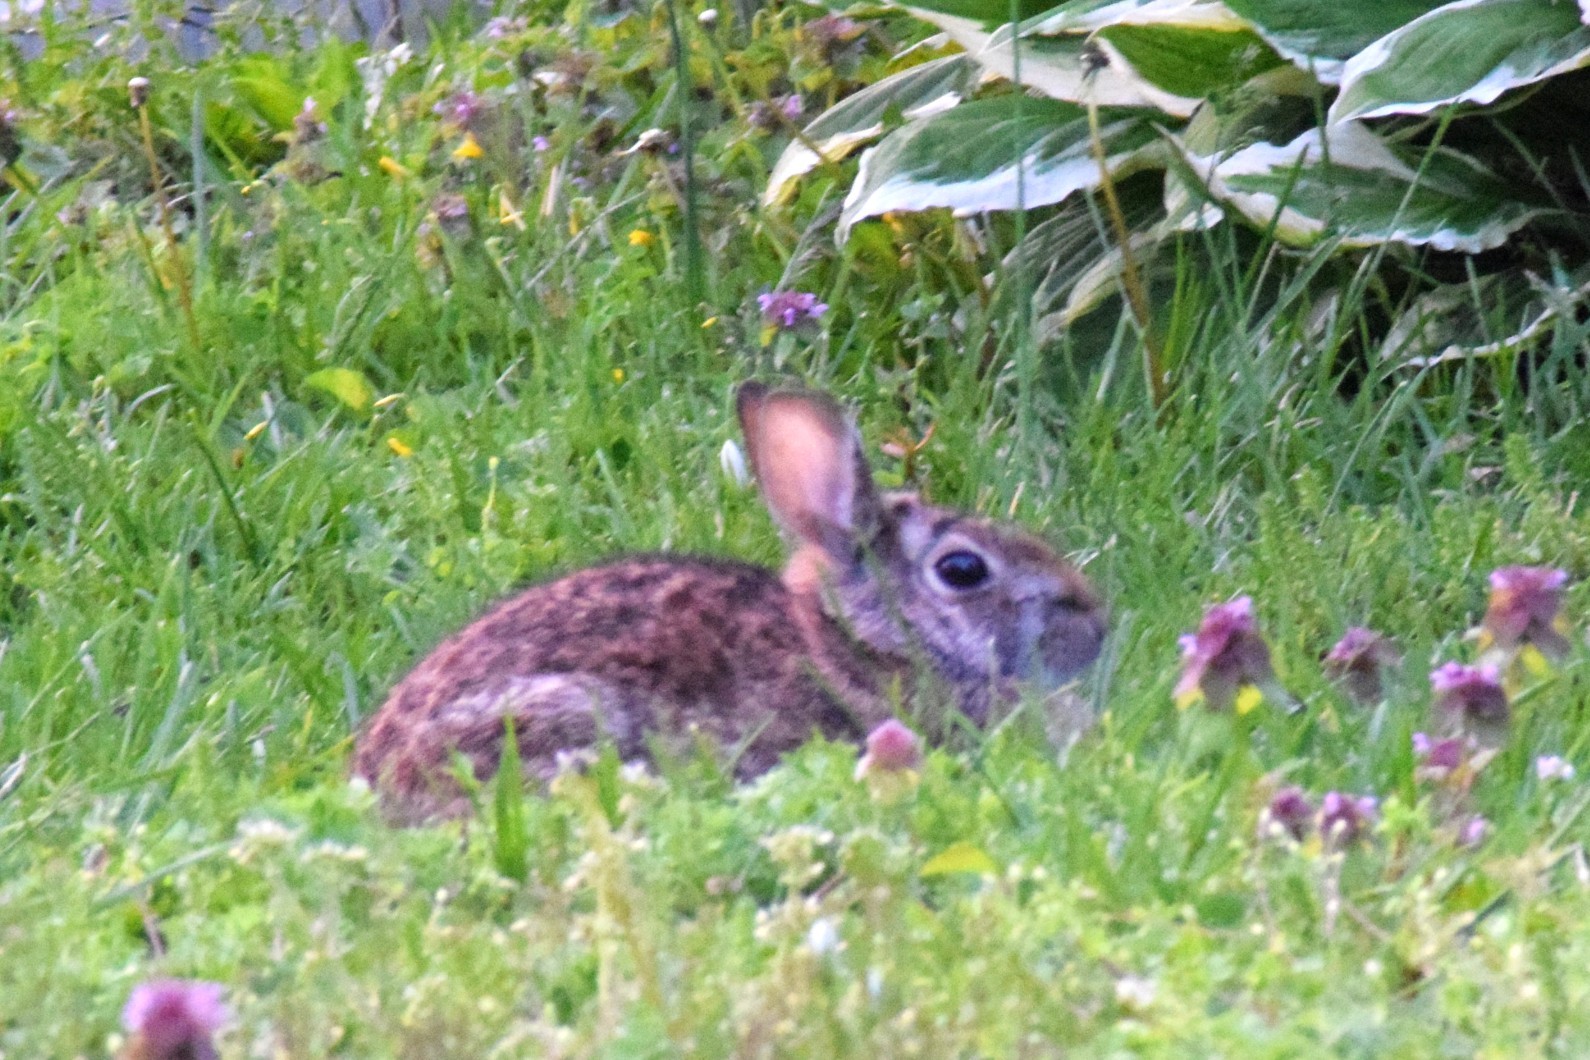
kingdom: Animalia
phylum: Chordata
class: Mammalia
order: Lagomorpha
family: Leporidae
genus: Sylvilagus
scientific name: Sylvilagus floridanus
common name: Eastern cottontail
